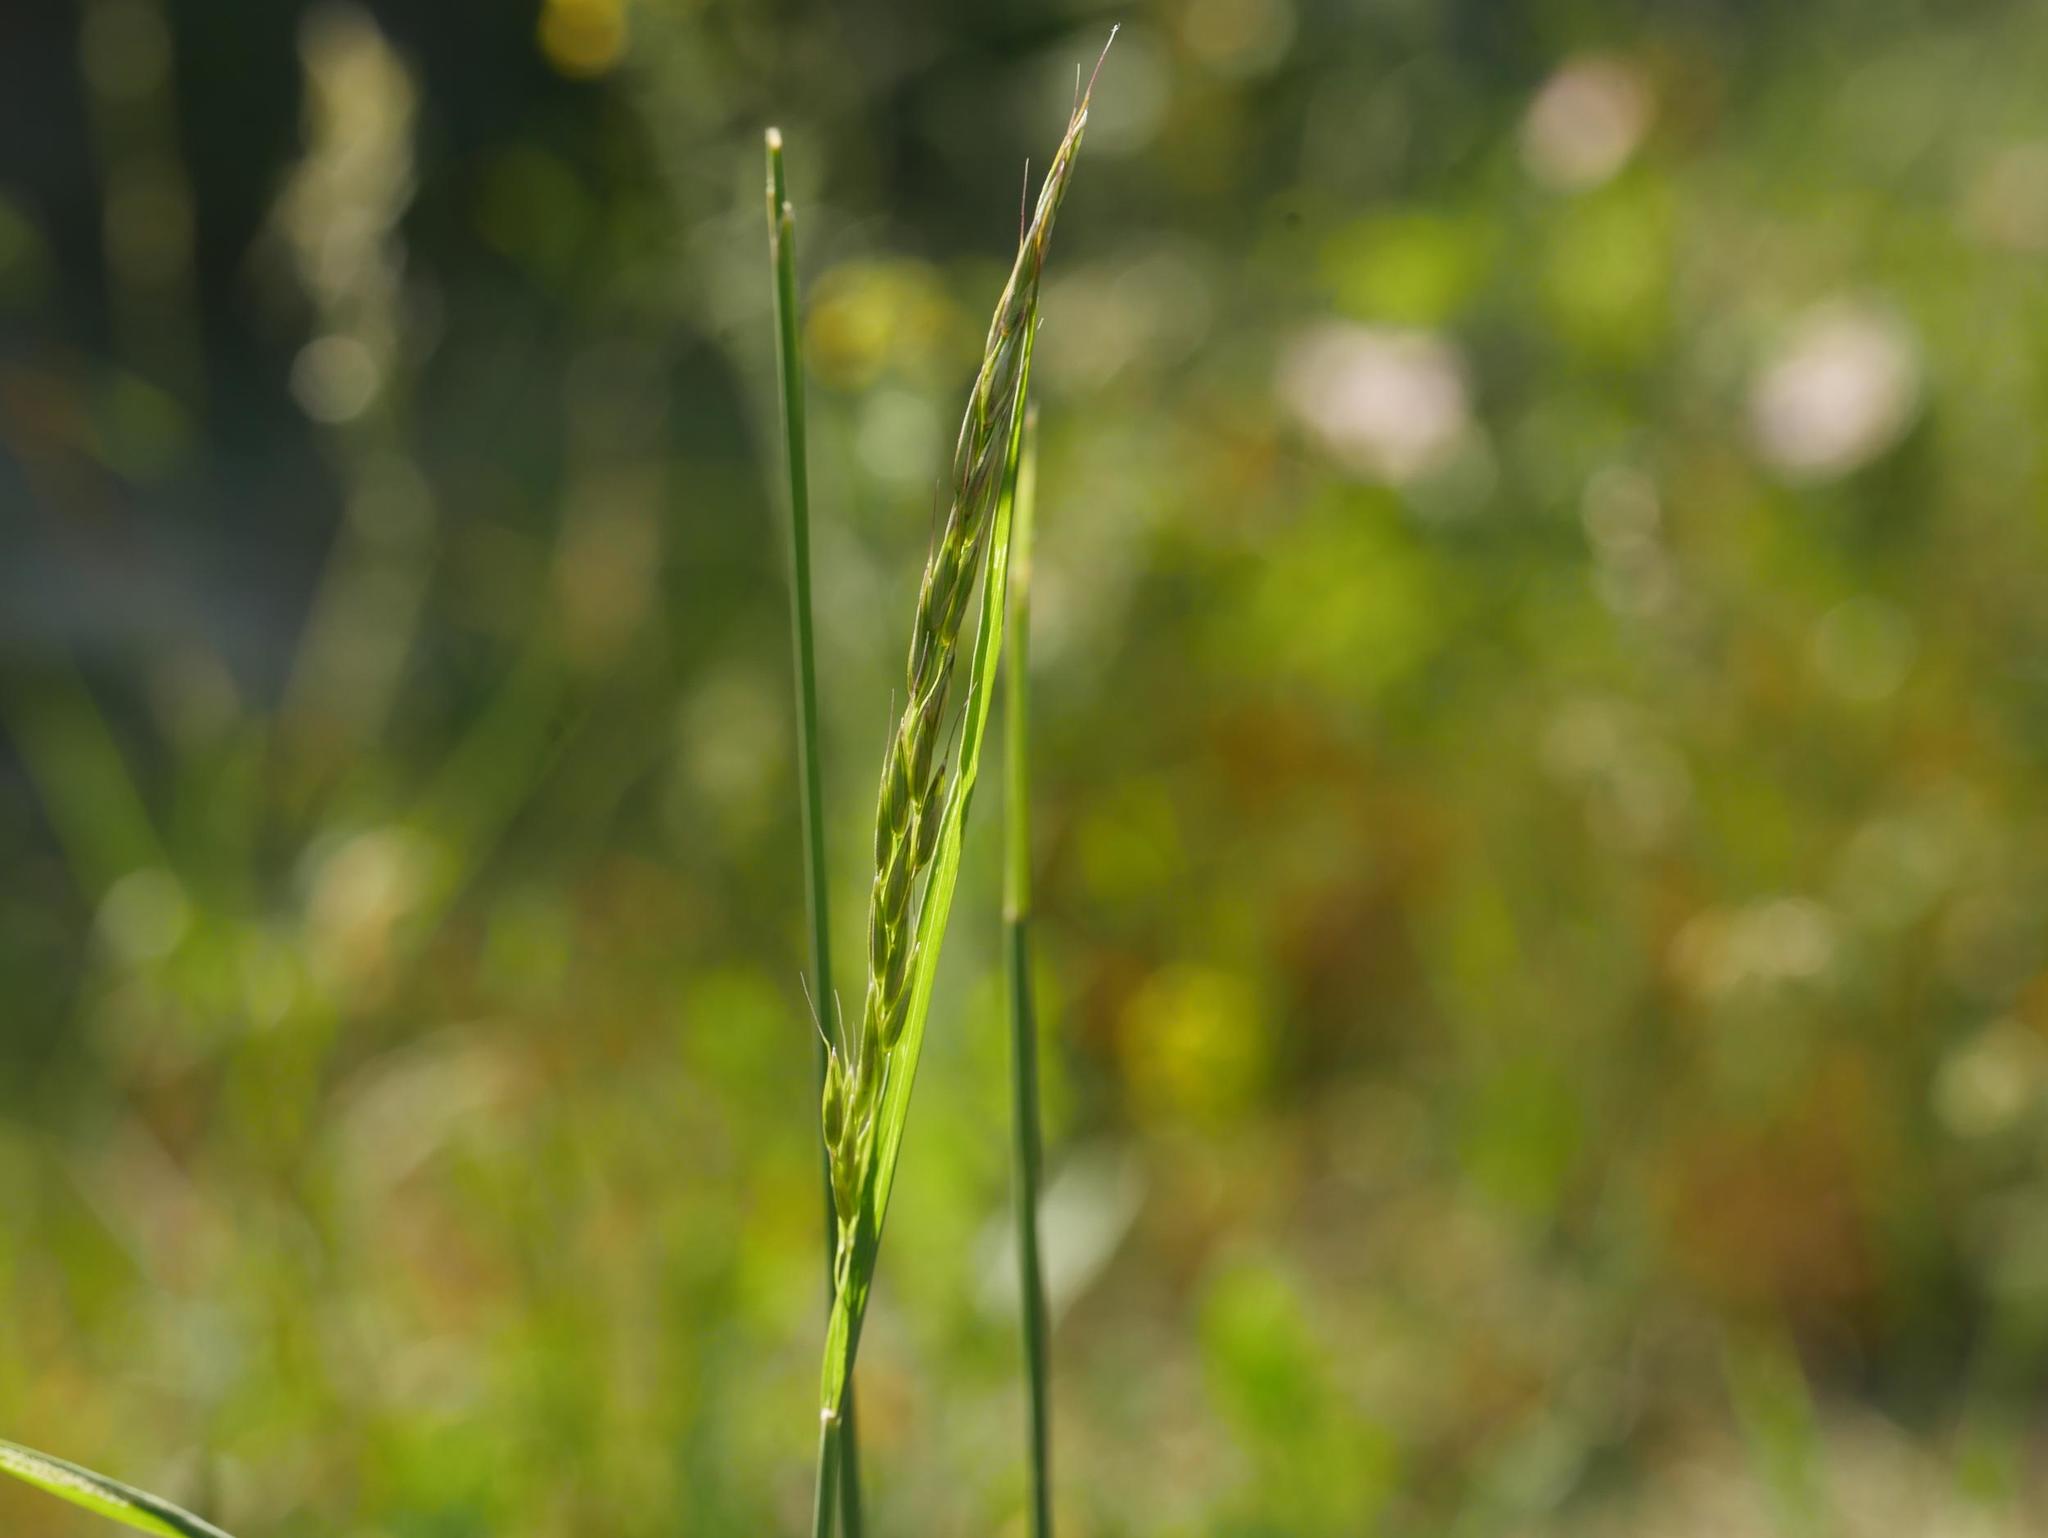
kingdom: Plantae
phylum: Tracheophyta
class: Liliopsida
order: Poales
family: Poaceae
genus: Arrhenatherum
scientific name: Arrhenatherum elatius
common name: Tall oatgrass
